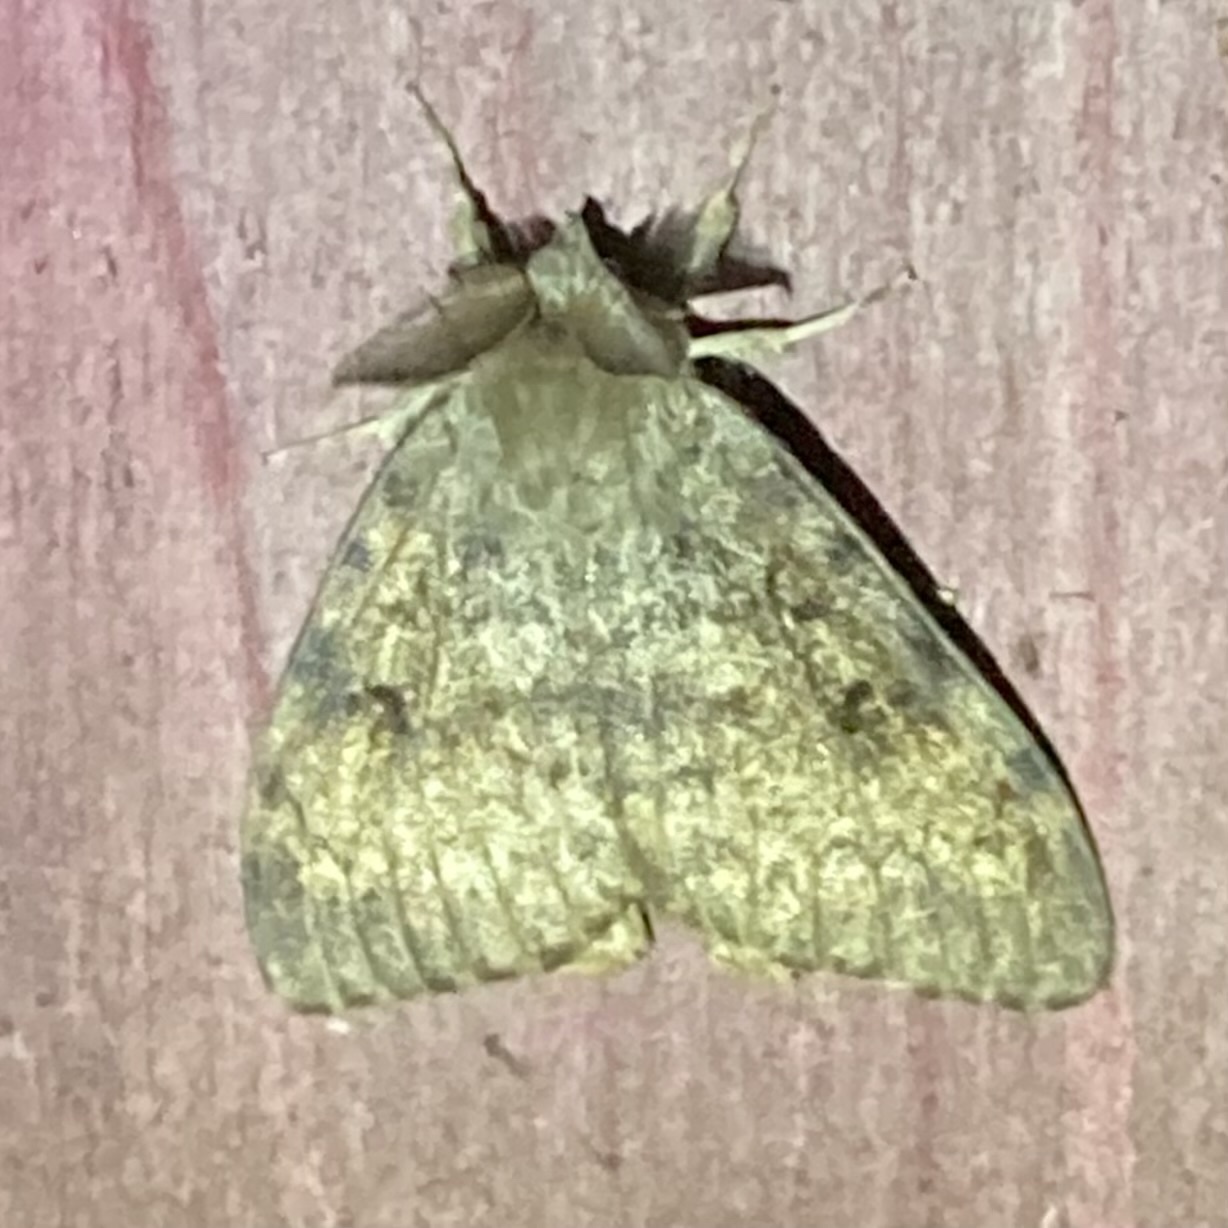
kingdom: Animalia
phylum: Arthropoda
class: Insecta
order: Lepidoptera
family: Erebidae
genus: Lymantria
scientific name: Lymantria dispar
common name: Gypsy moth
